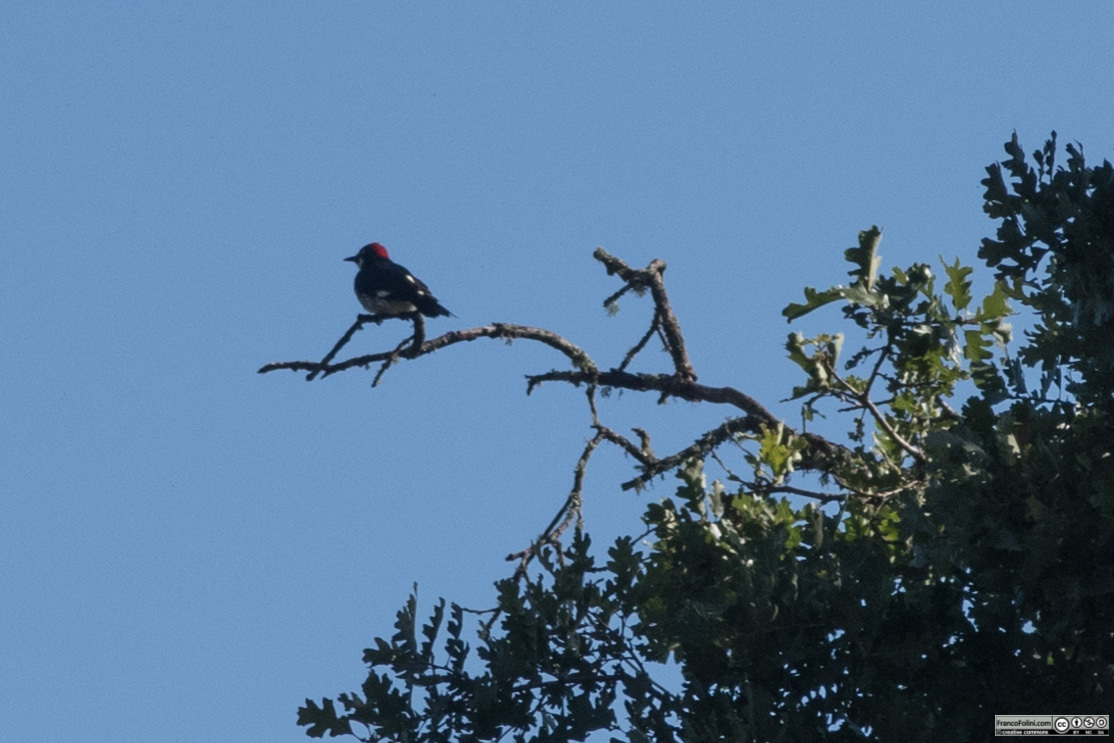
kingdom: Animalia
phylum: Chordata
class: Aves
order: Piciformes
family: Picidae
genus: Melanerpes
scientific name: Melanerpes formicivorus
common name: Acorn woodpecker
